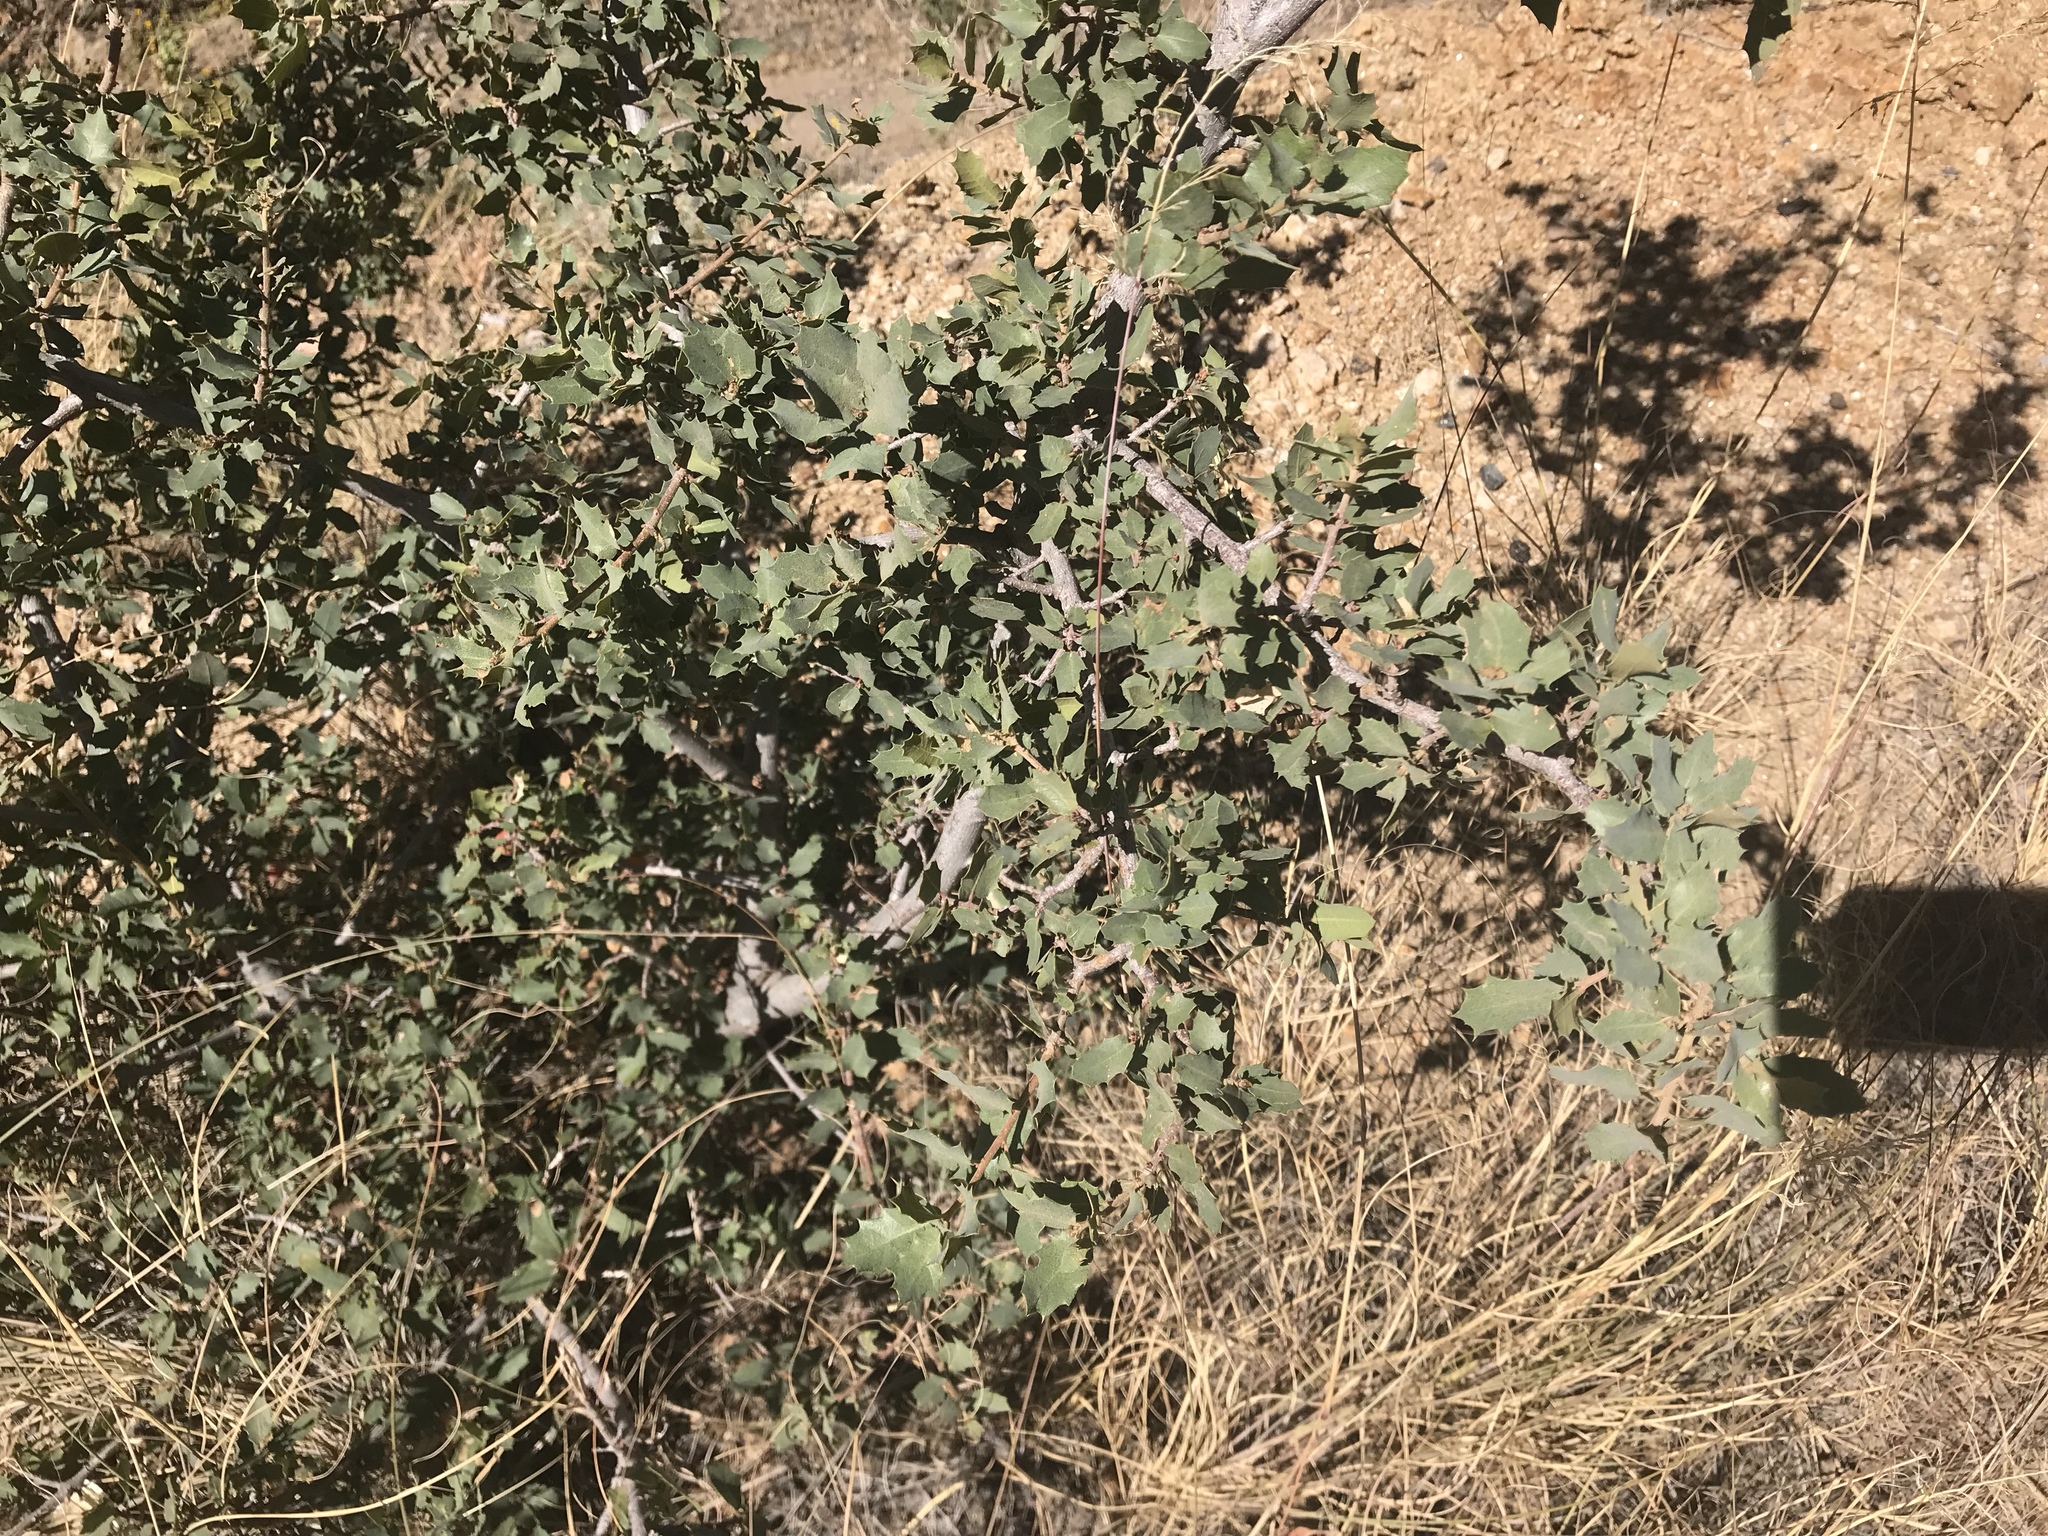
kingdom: Plantae
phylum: Tracheophyta
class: Magnoliopsida
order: Fagales
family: Fagaceae
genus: Quercus
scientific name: Quercus turbinella
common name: Sonoran scrub oak
